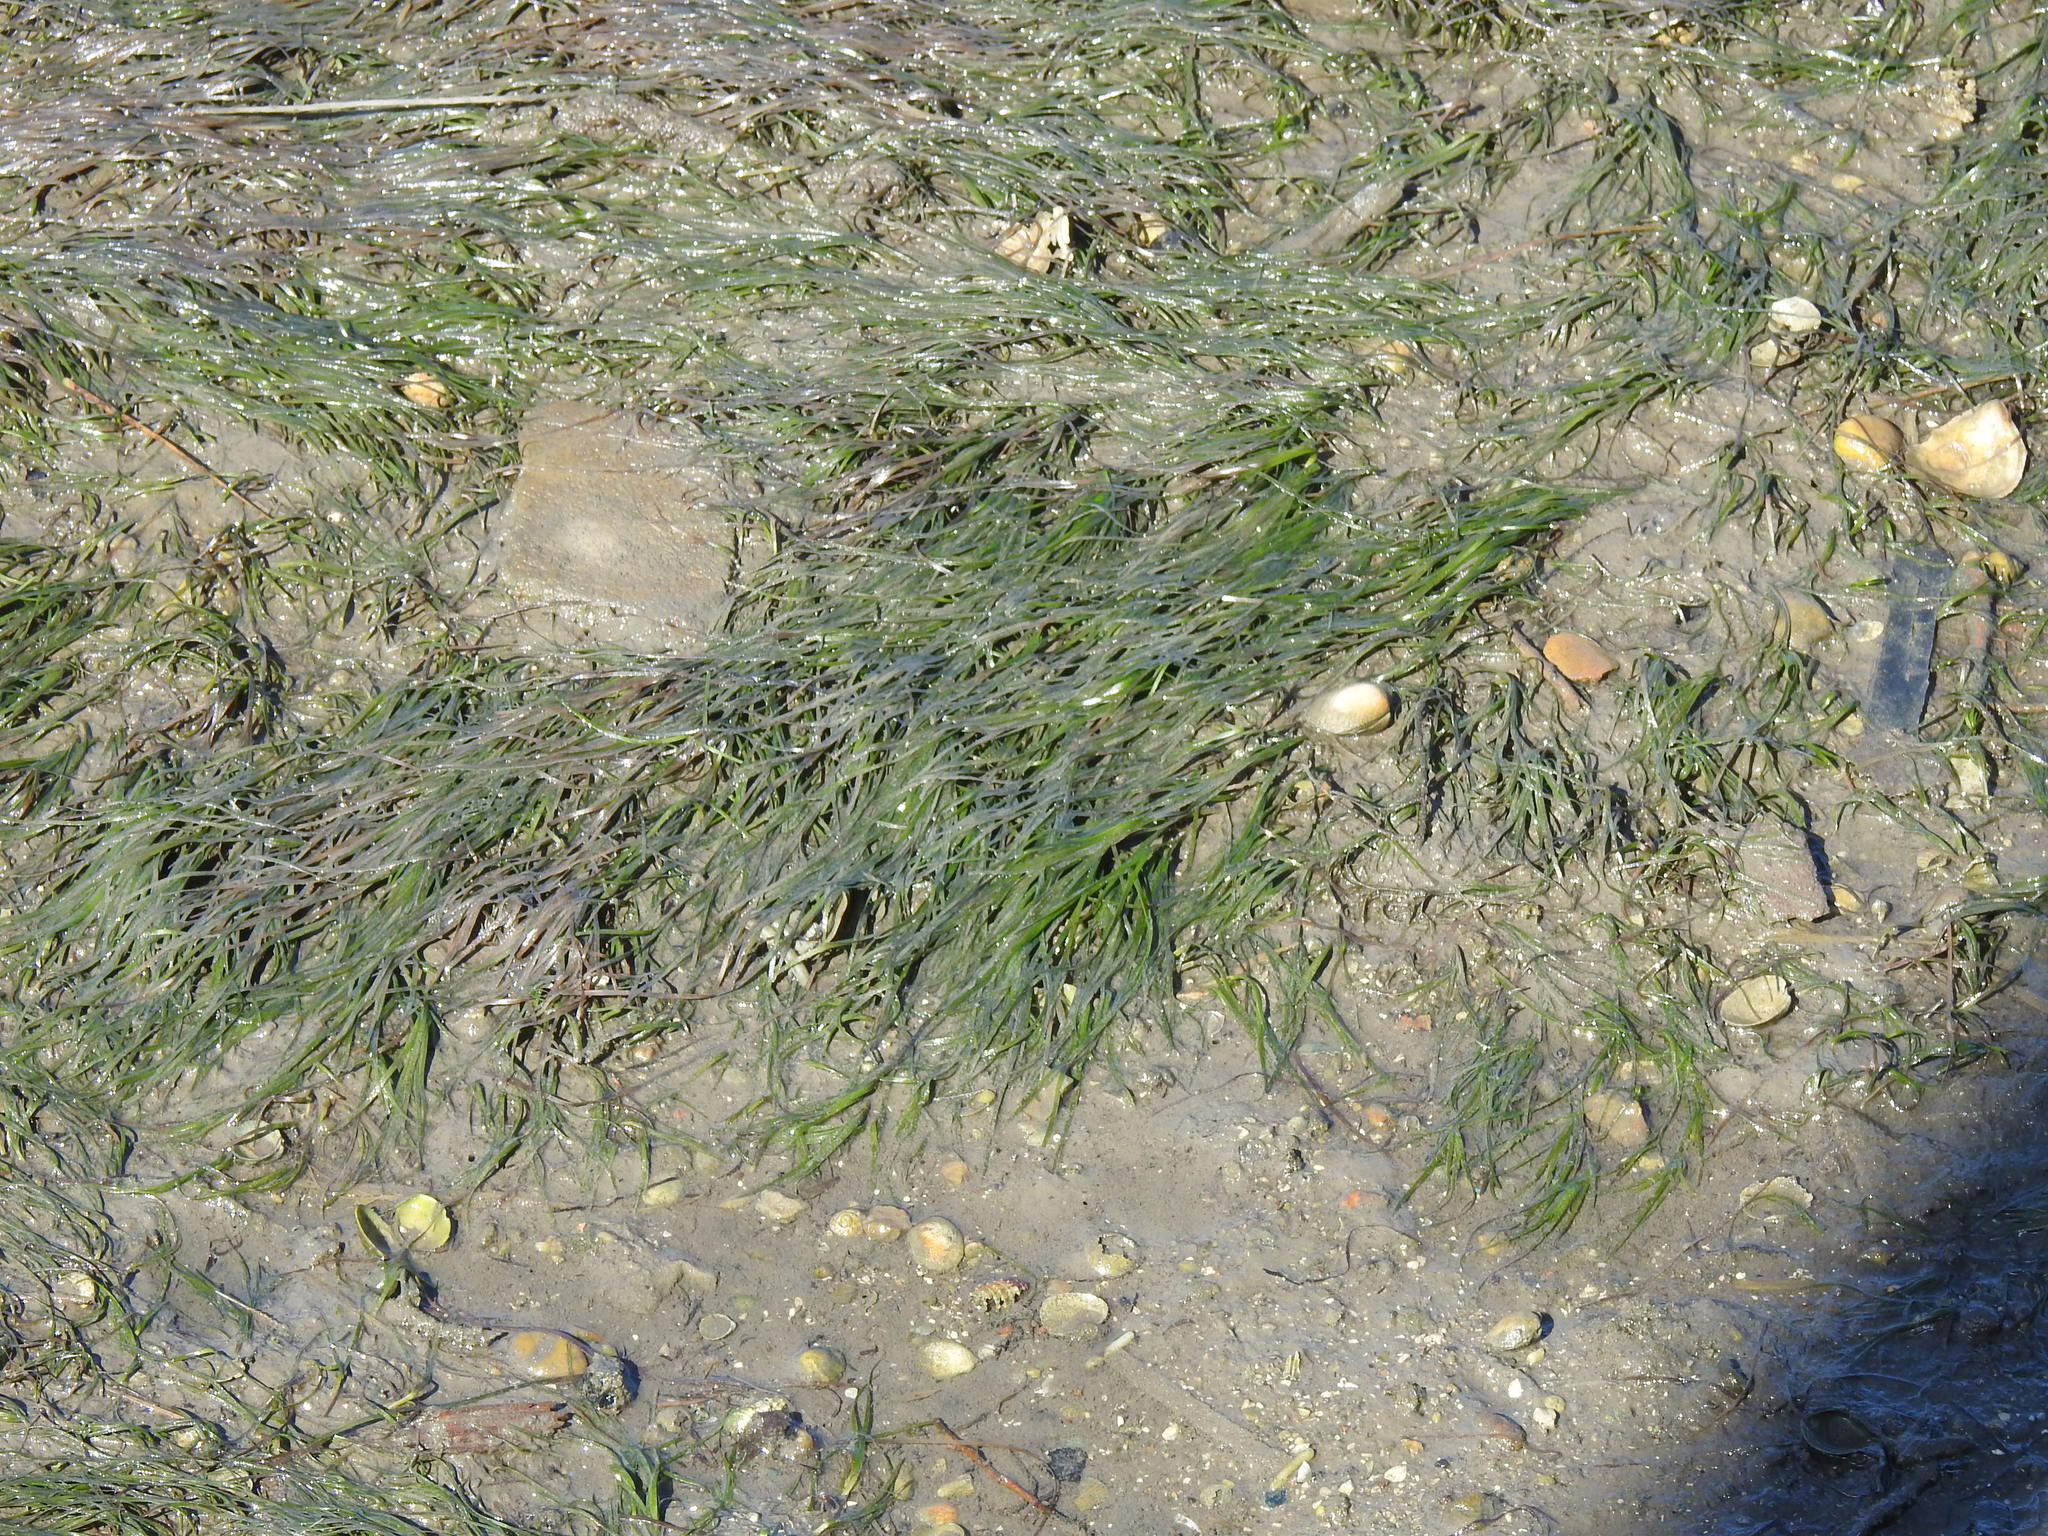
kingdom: Plantae
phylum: Tracheophyta
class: Liliopsida
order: Alismatales
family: Zosteraceae
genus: Zostera
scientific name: Zostera noltii
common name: Dwarf eelgrass
